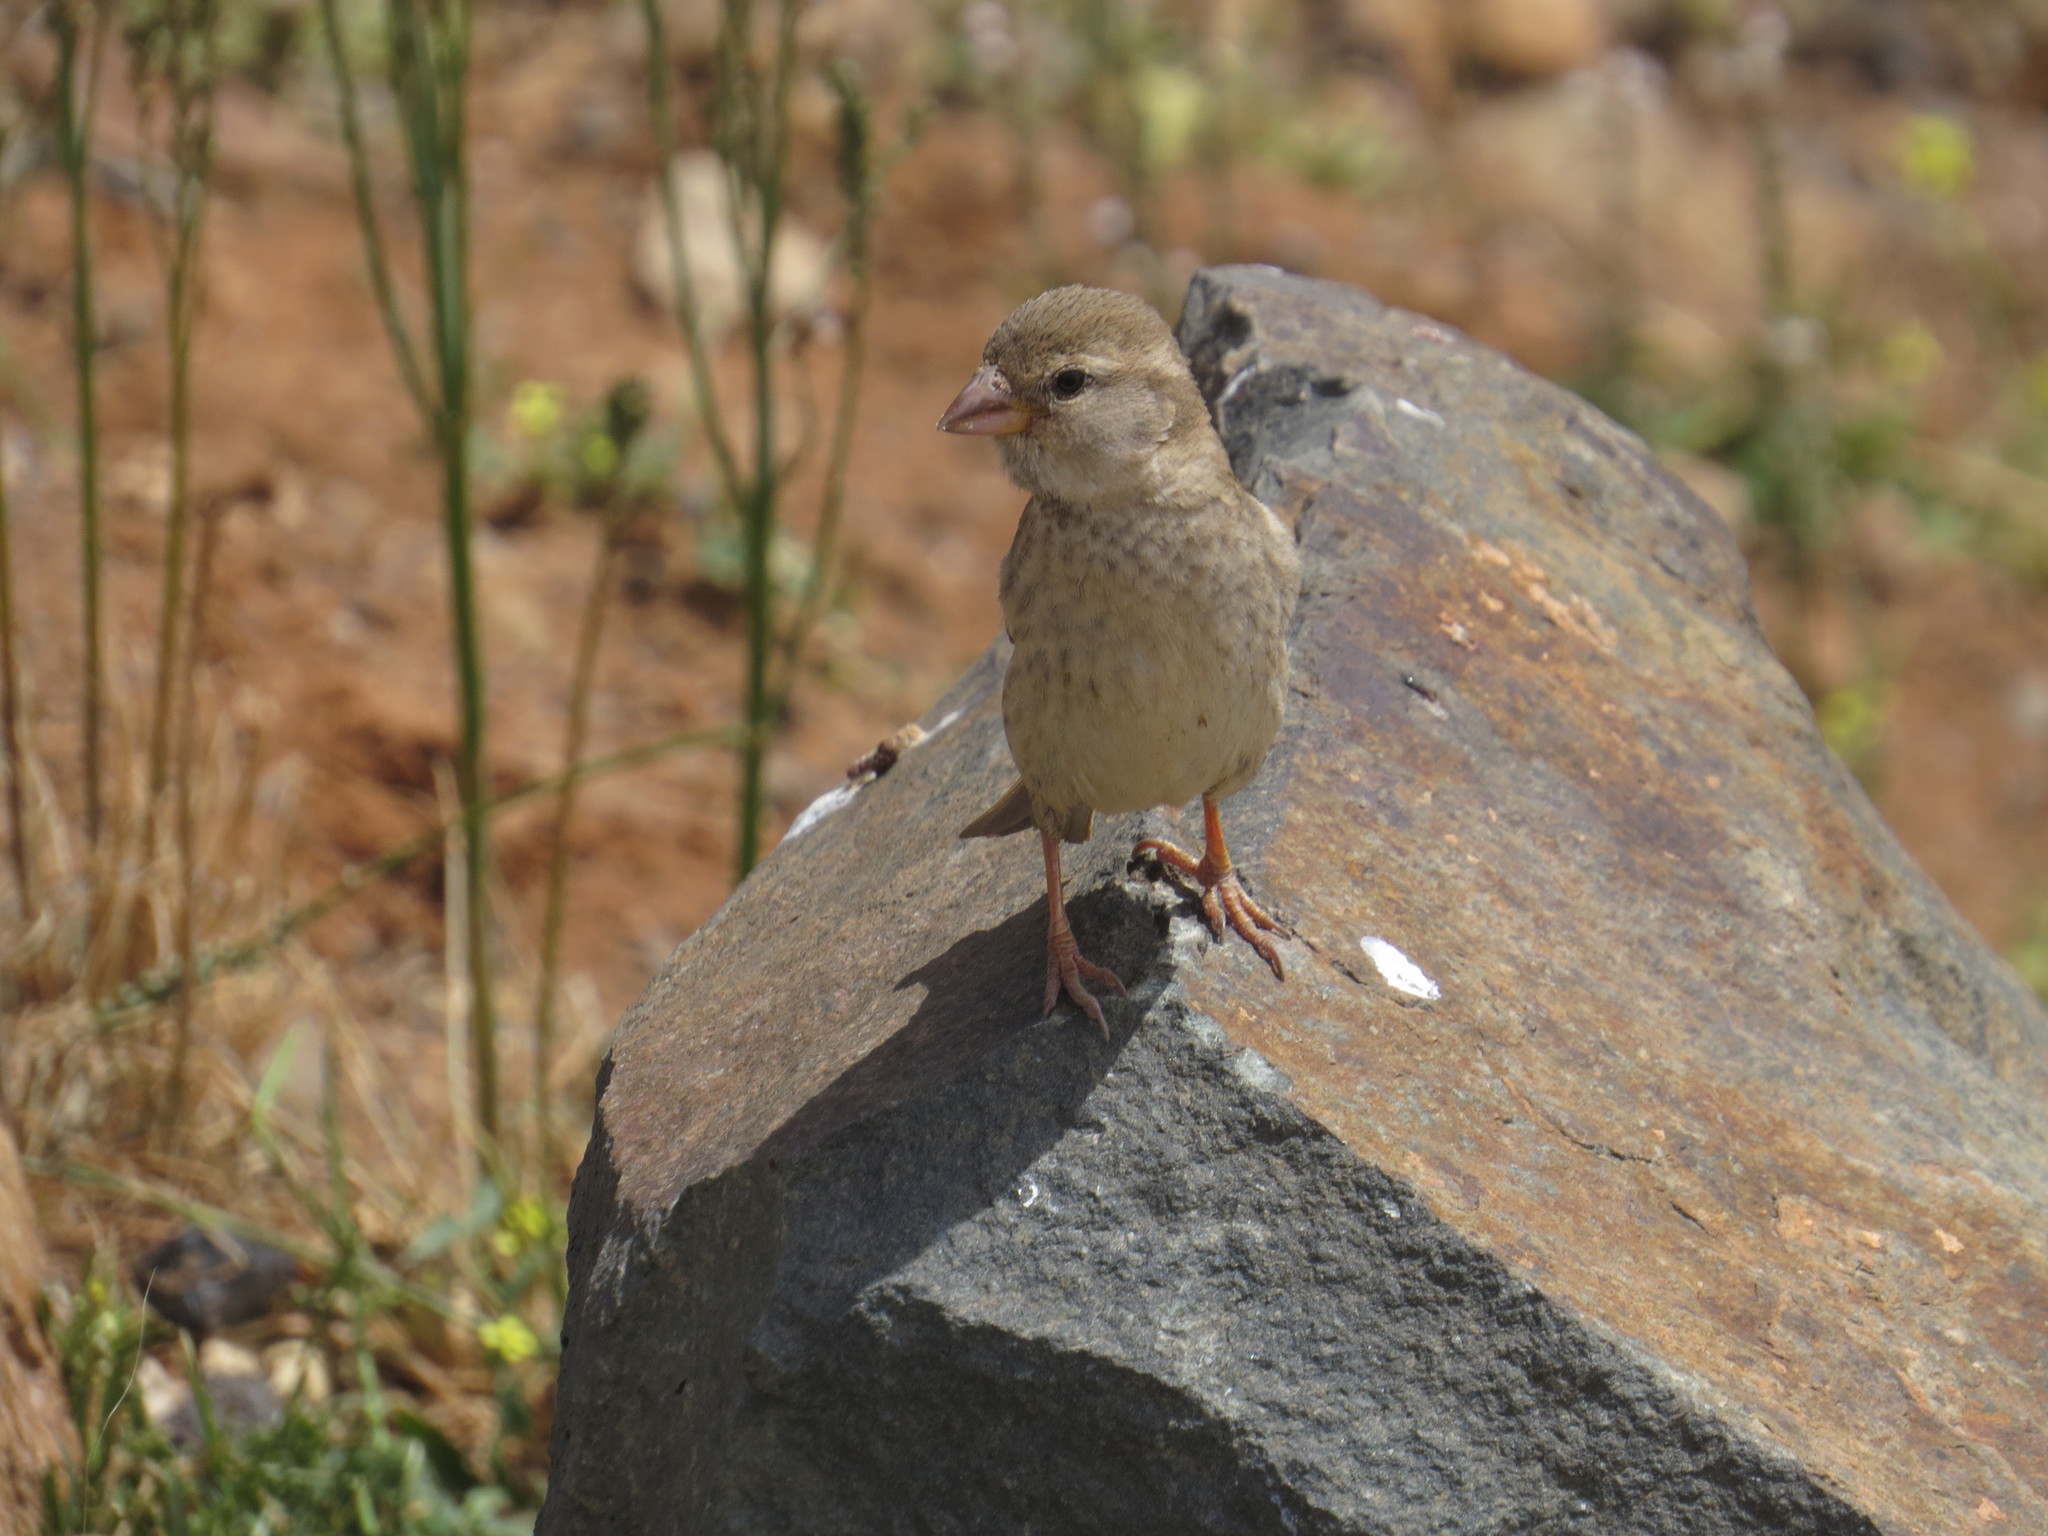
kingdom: Animalia
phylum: Chordata
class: Aves
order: Passeriformes
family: Passeridae
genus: Passer
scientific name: Passer hispaniolensis
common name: Spanish sparrow
